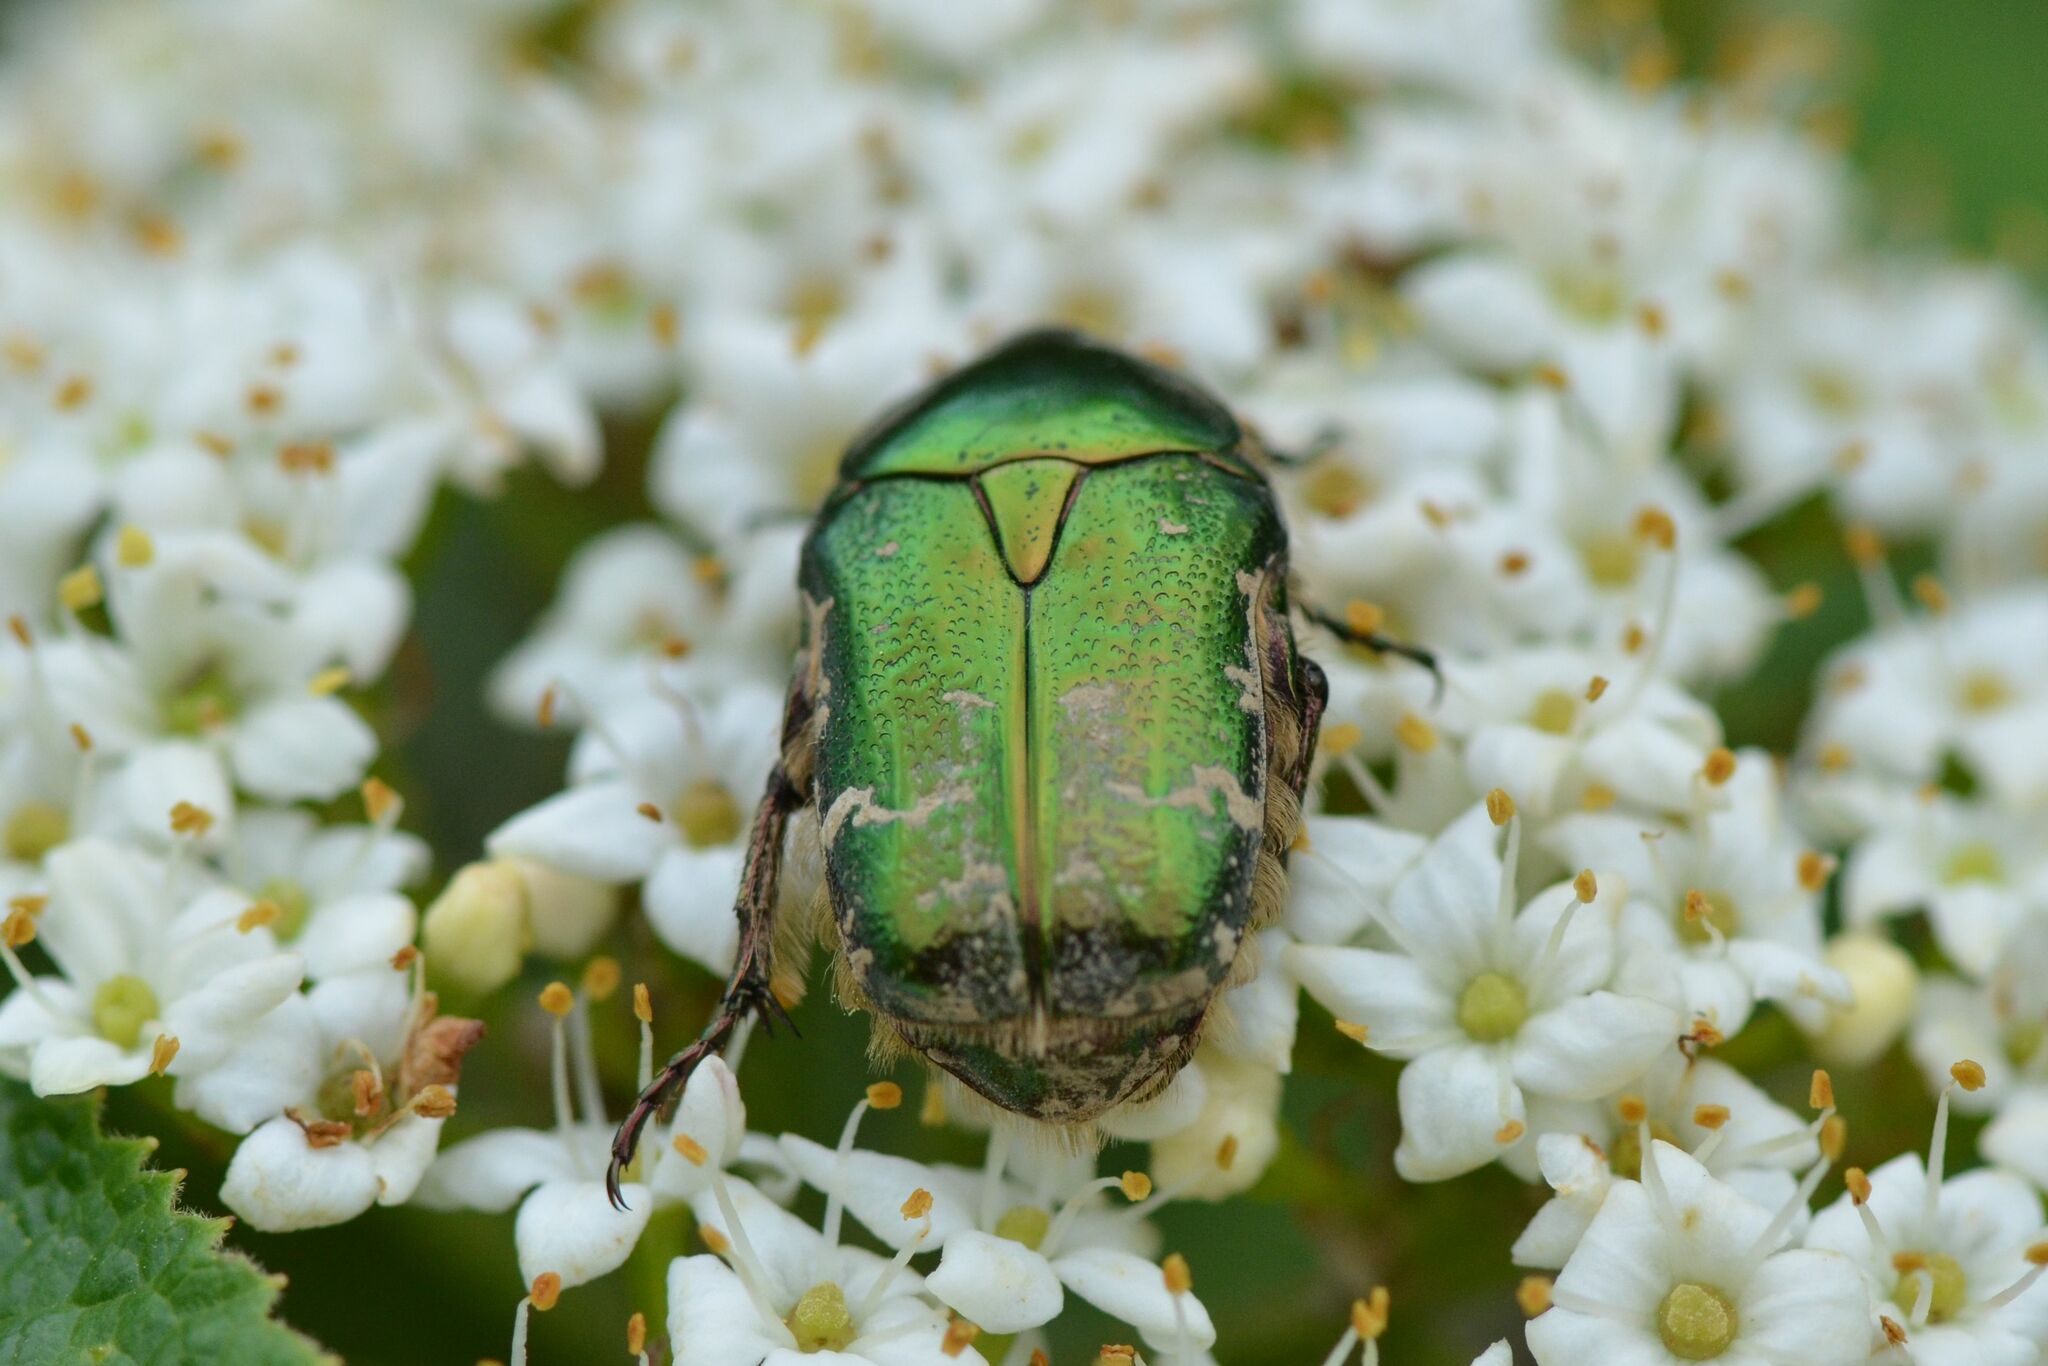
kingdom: Animalia
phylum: Arthropoda
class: Insecta
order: Coleoptera
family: Scarabaeidae
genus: Cetonia
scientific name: Cetonia aurata
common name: Rose chafer
